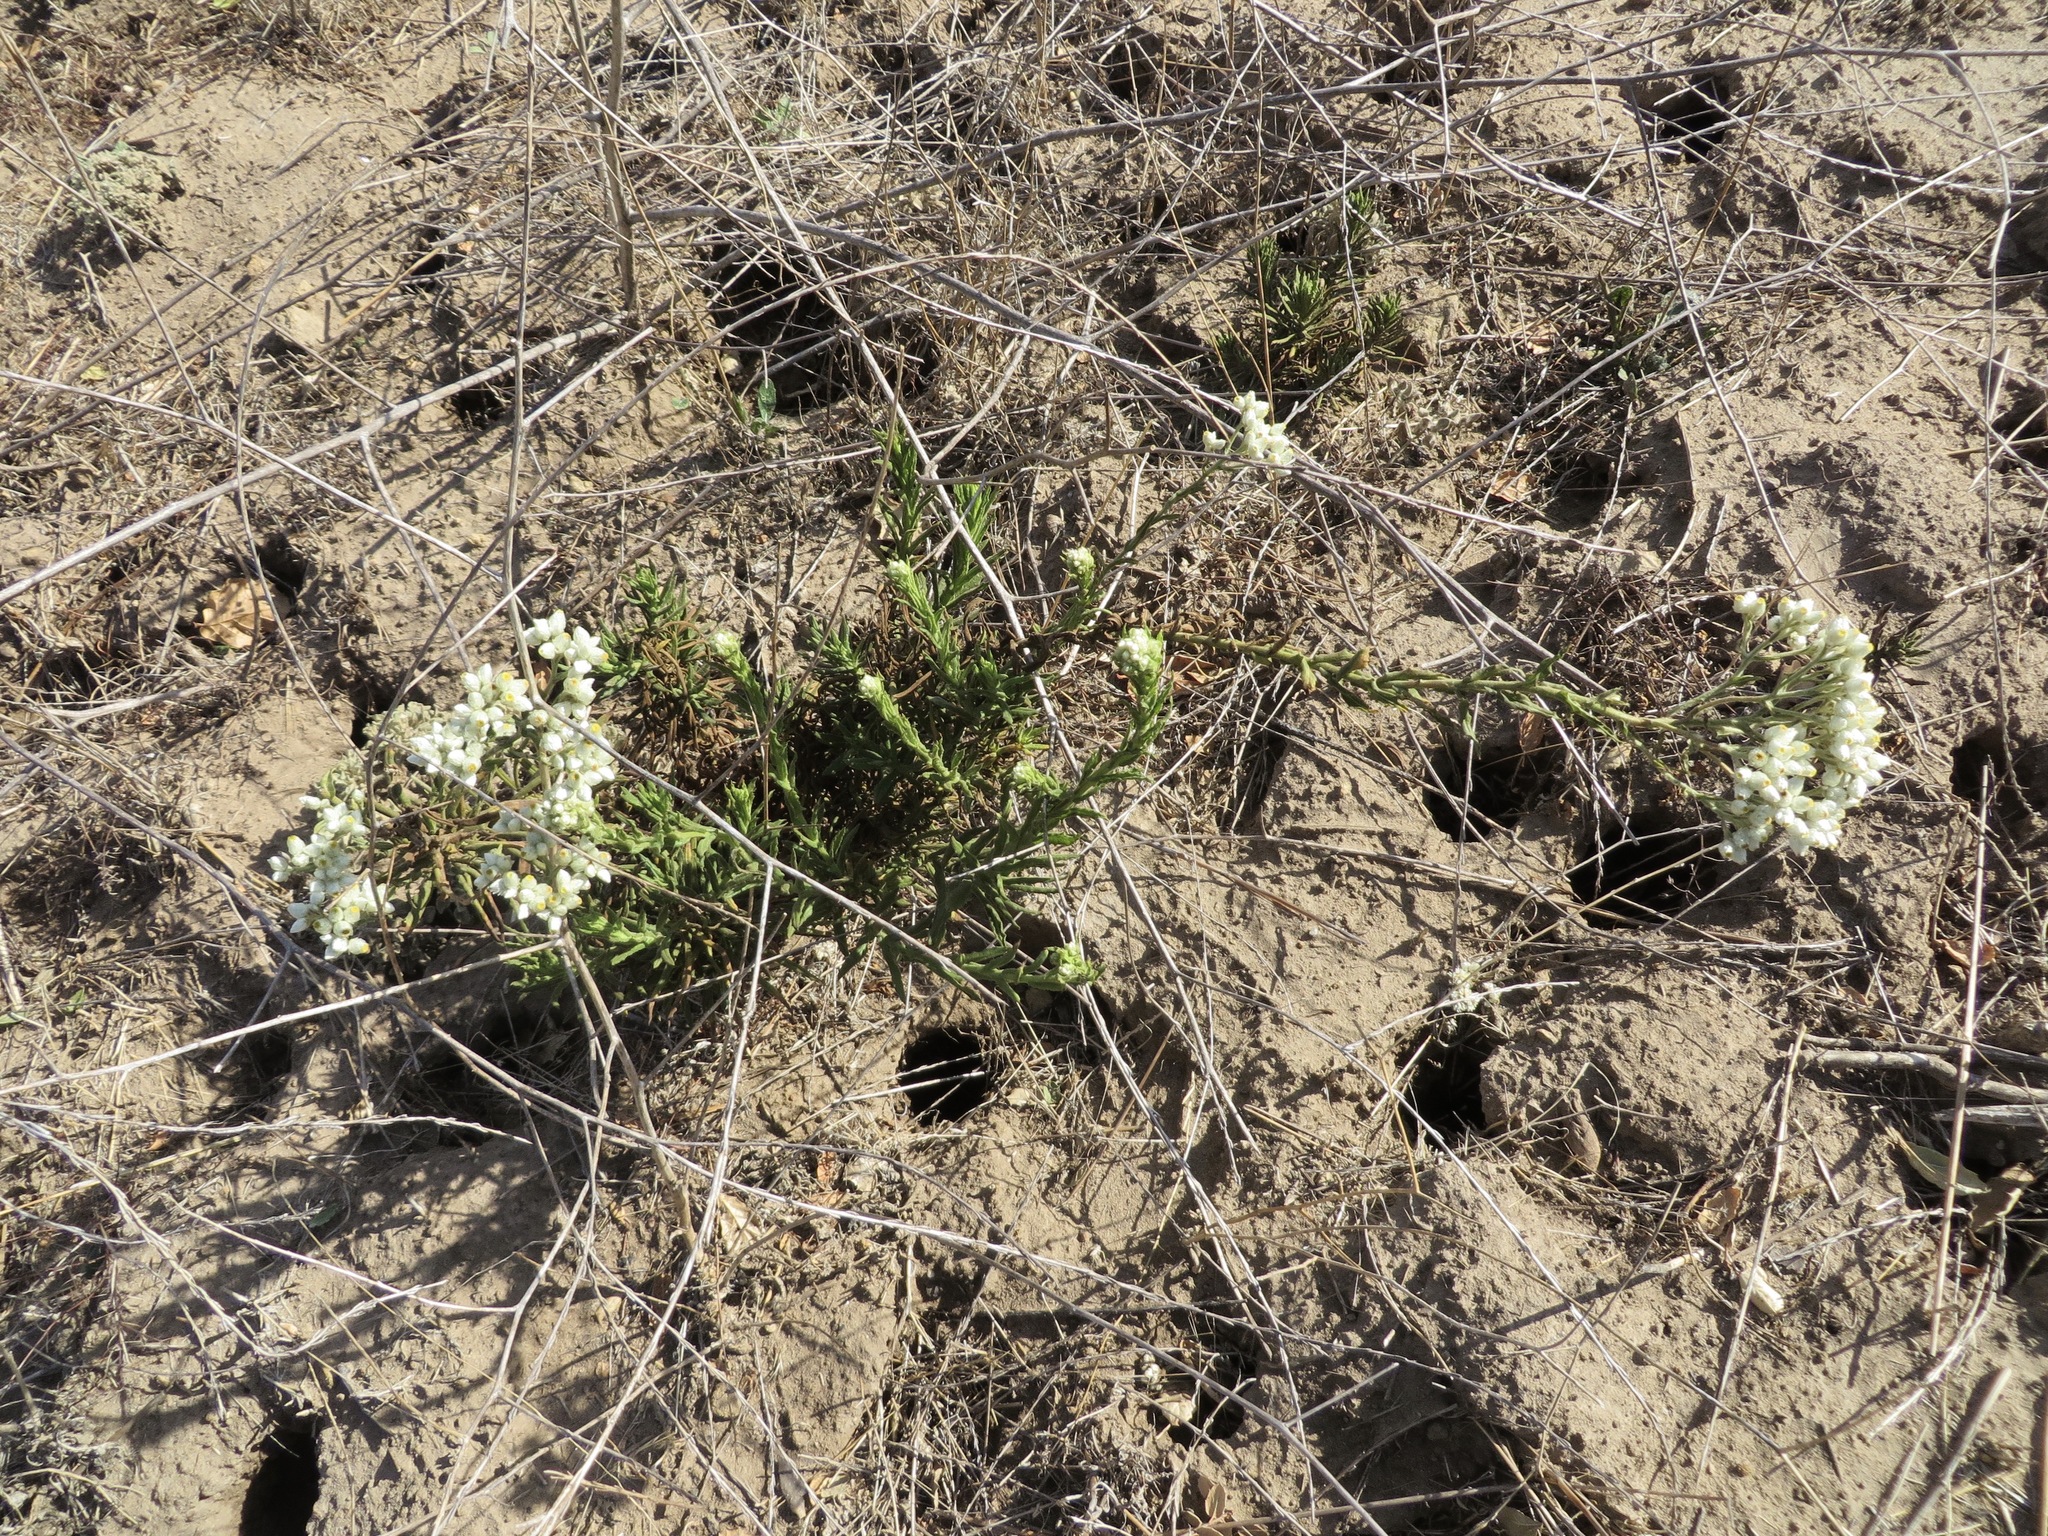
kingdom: Plantae
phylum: Tracheophyta
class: Magnoliopsida
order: Asterales
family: Asteraceae
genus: Pseudognaphalium
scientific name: Pseudognaphalium californicum
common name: California rabbit-tobacco
